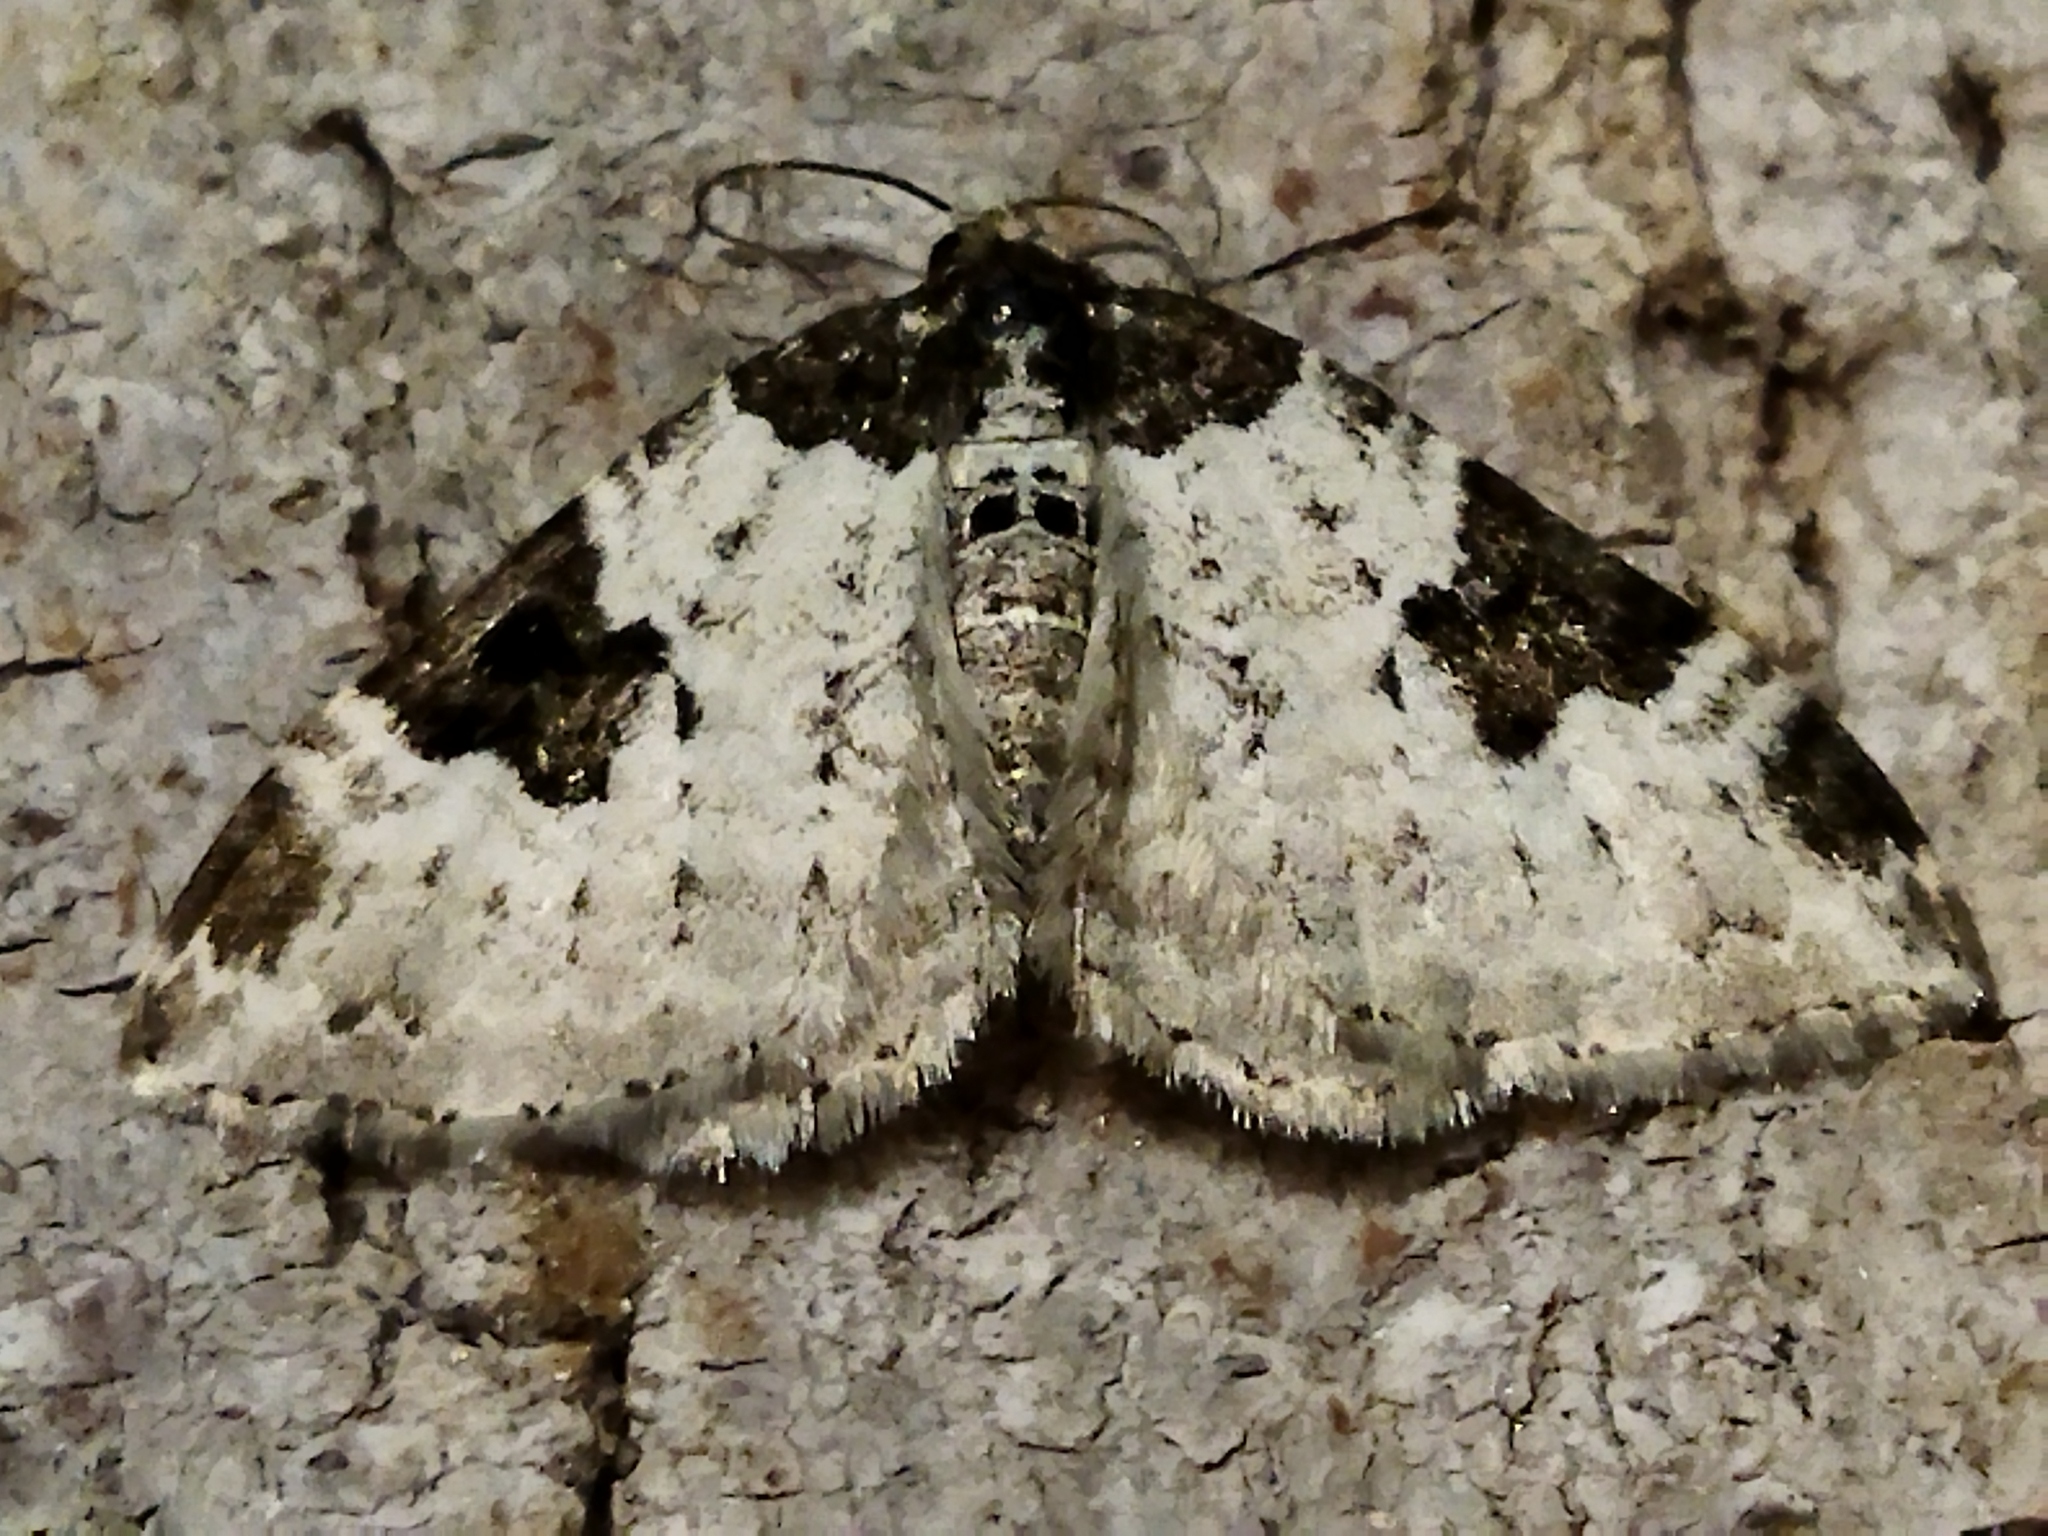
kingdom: Animalia
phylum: Arthropoda
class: Insecta
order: Lepidoptera
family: Geometridae
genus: Xanthorhoe
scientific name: Xanthorhoe fluctuata
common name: Garden carpet
